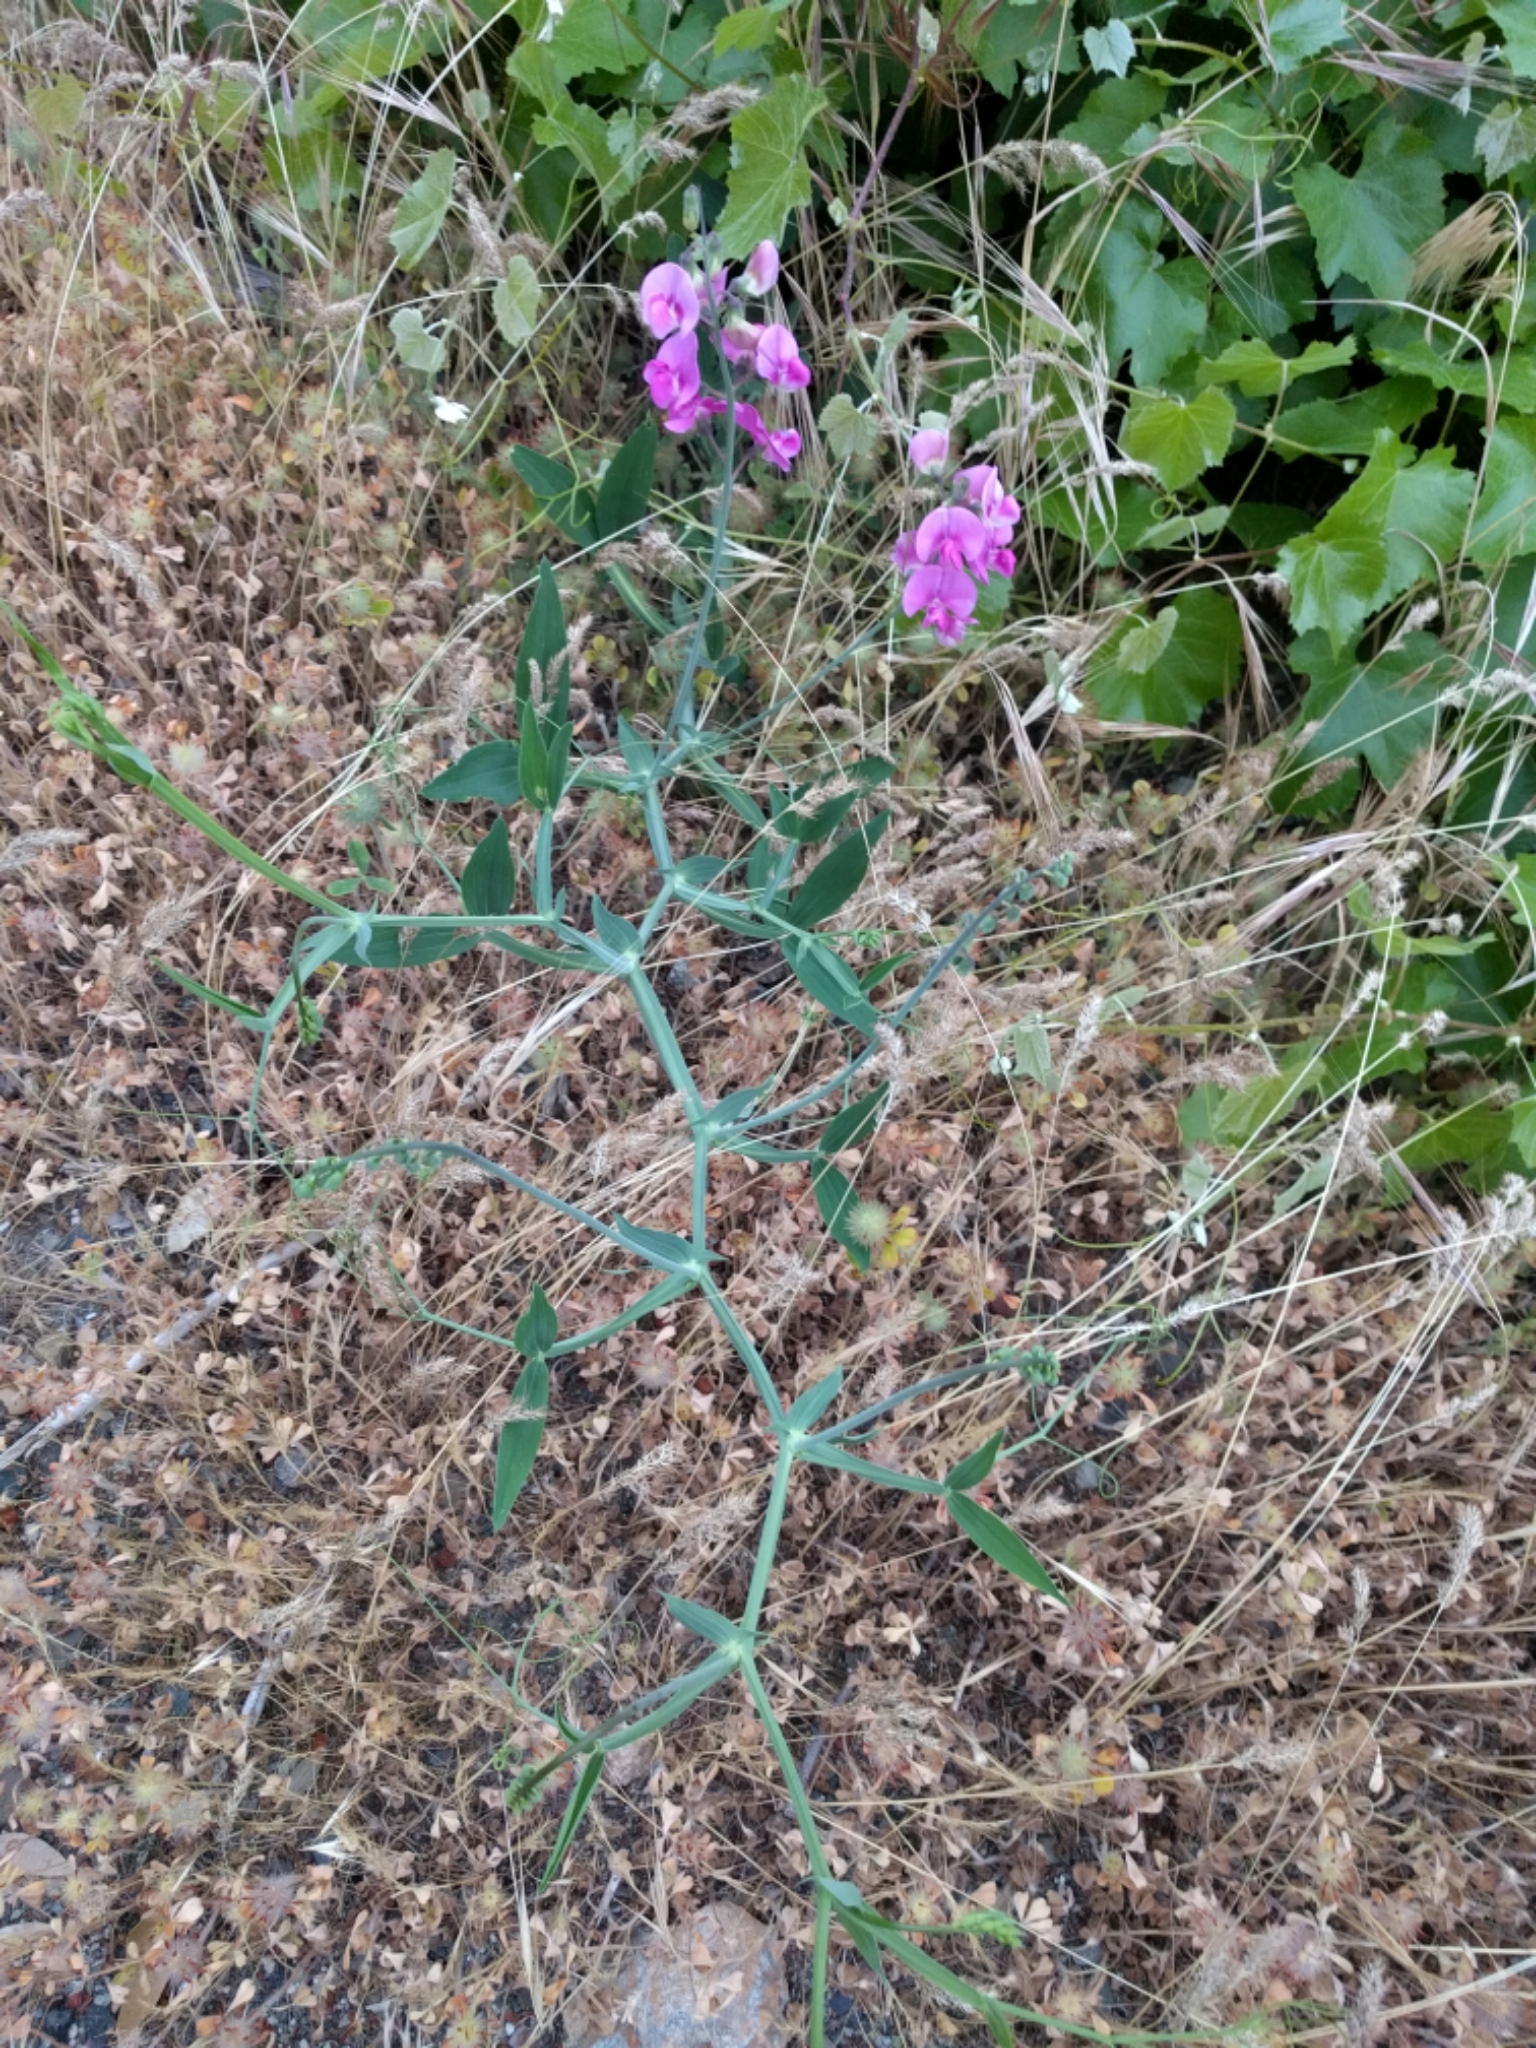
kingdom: Plantae
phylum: Tracheophyta
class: Magnoliopsida
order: Fabales
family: Fabaceae
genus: Lathyrus
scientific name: Lathyrus latifolius
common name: Perennial pea
